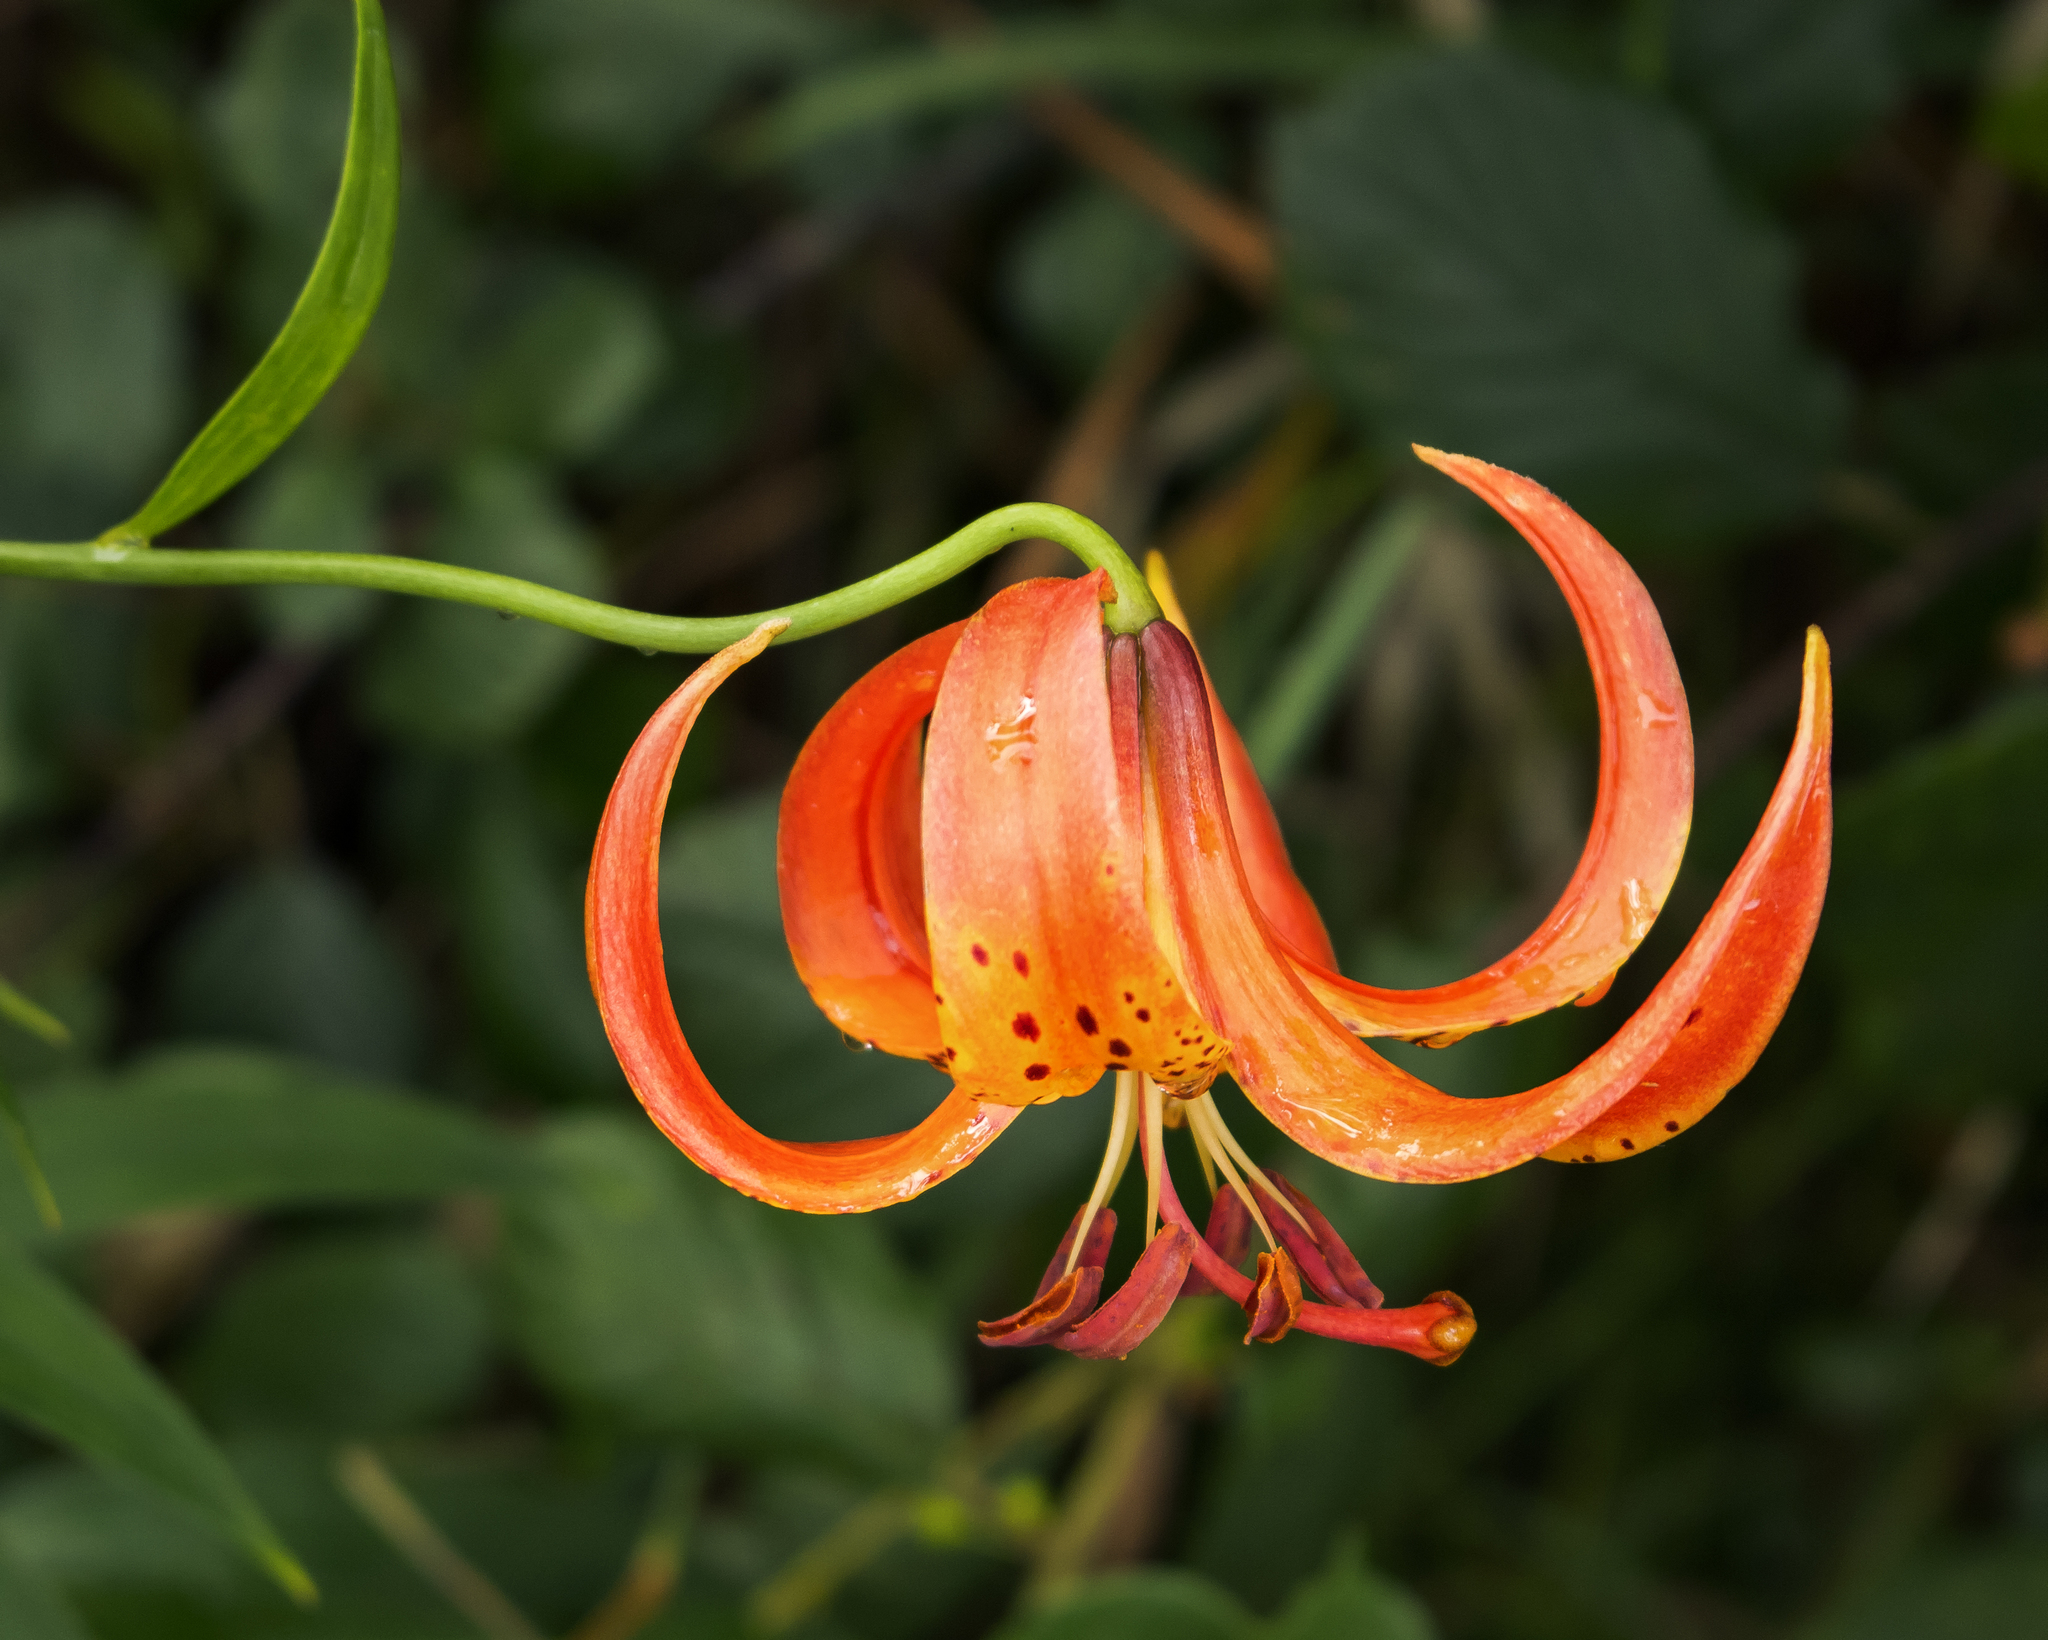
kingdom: Plantae
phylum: Tracheophyta
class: Liliopsida
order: Liliales
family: Liliaceae
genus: Lilium
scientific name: Lilium michiganense
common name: Michigan lily
